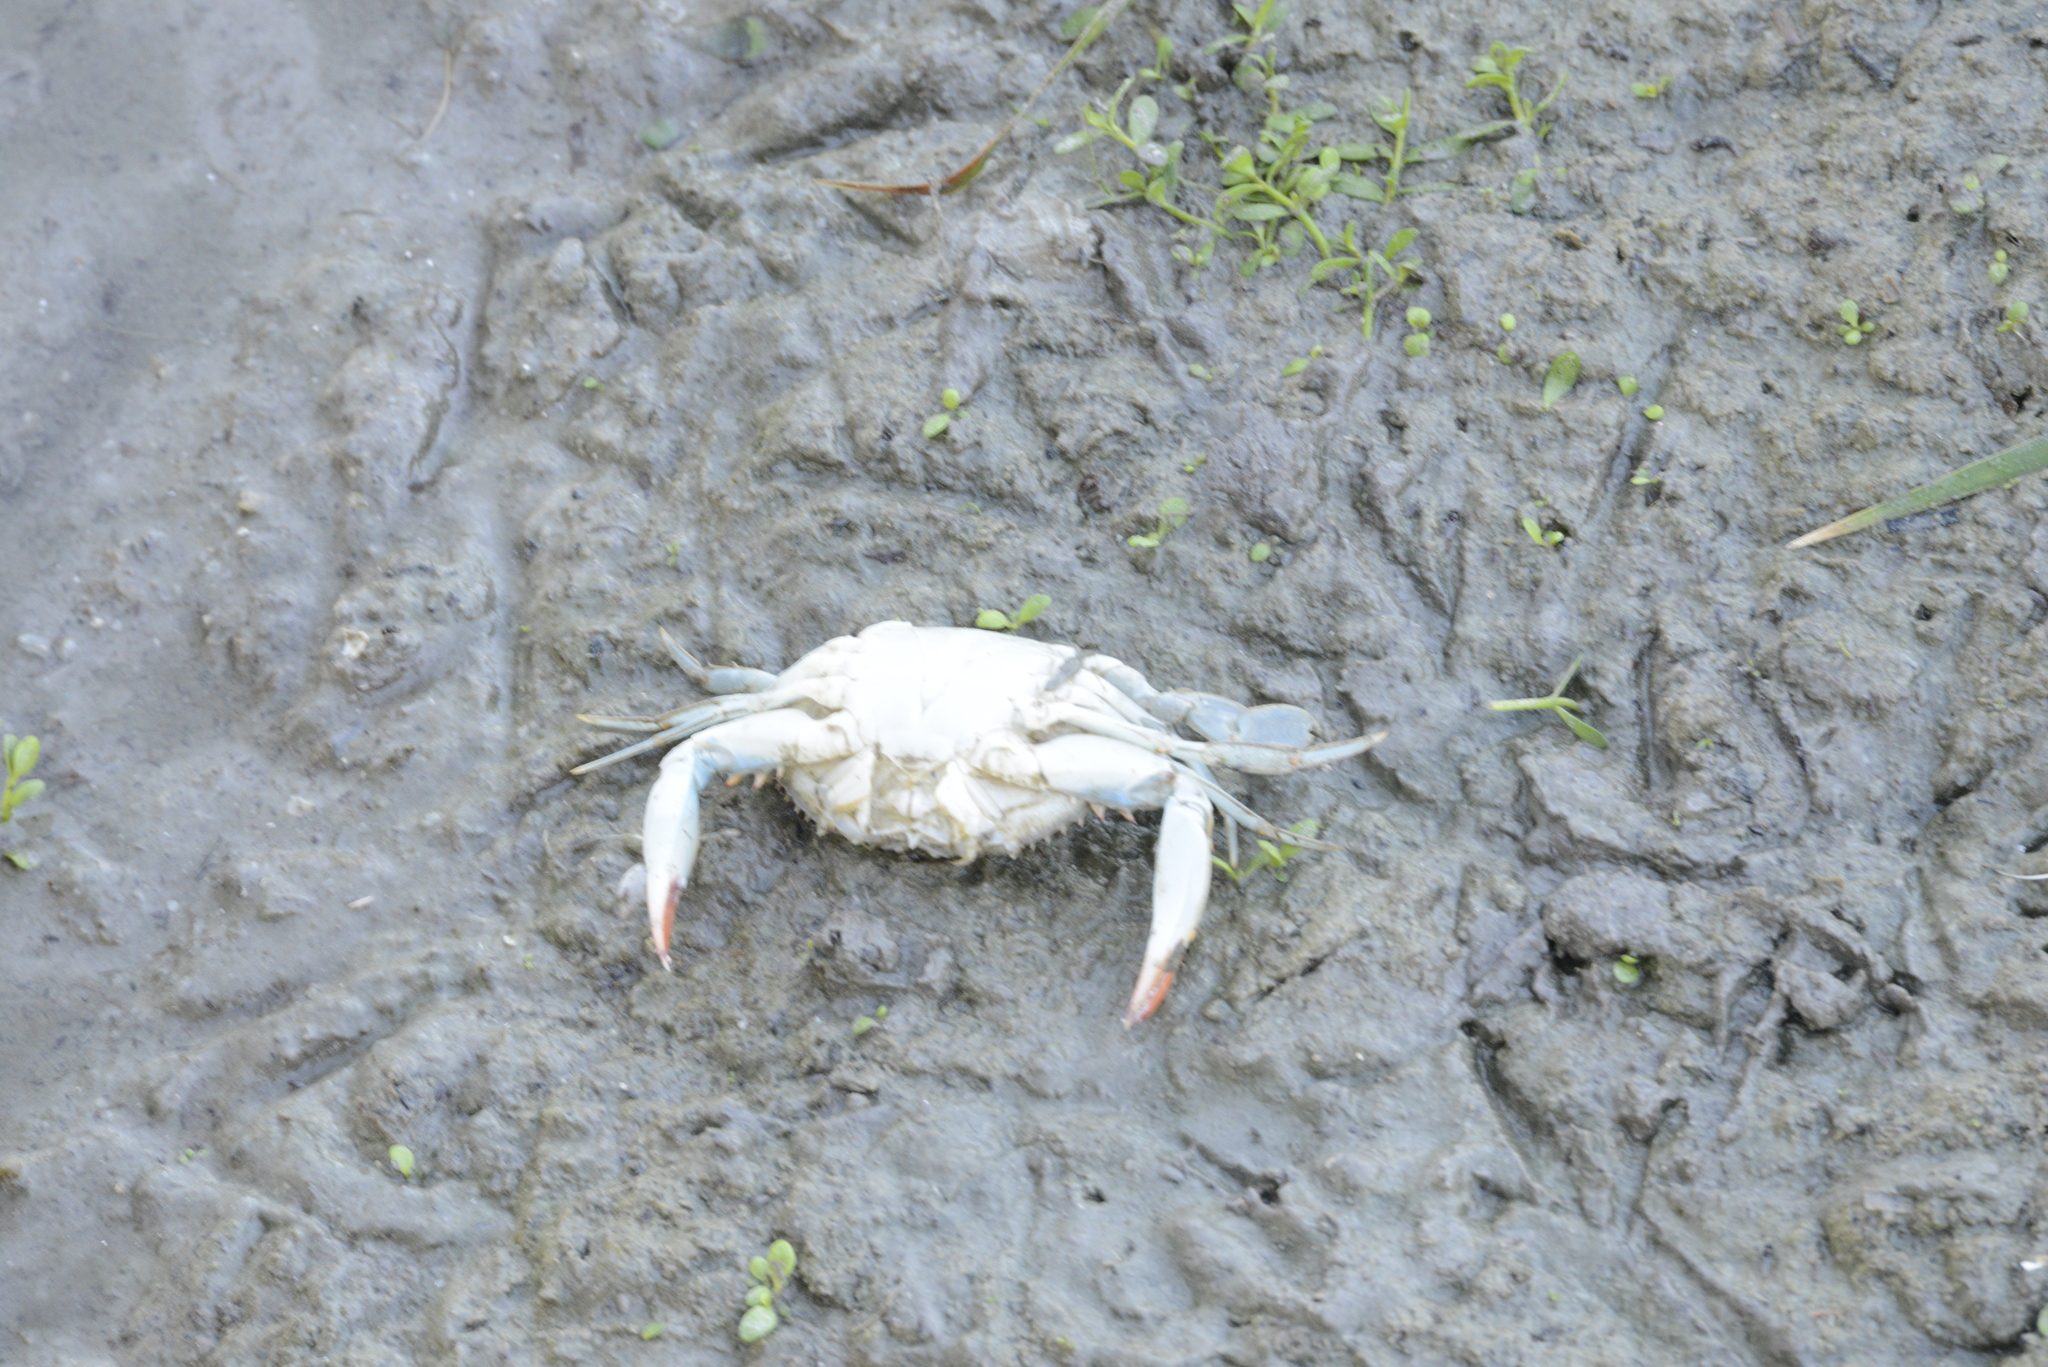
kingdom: Animalia
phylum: Arthropoda
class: Malacostraca
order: Decapoda
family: Portunidae
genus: Callinectes
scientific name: Callinectes sapidus
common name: Blue crab
